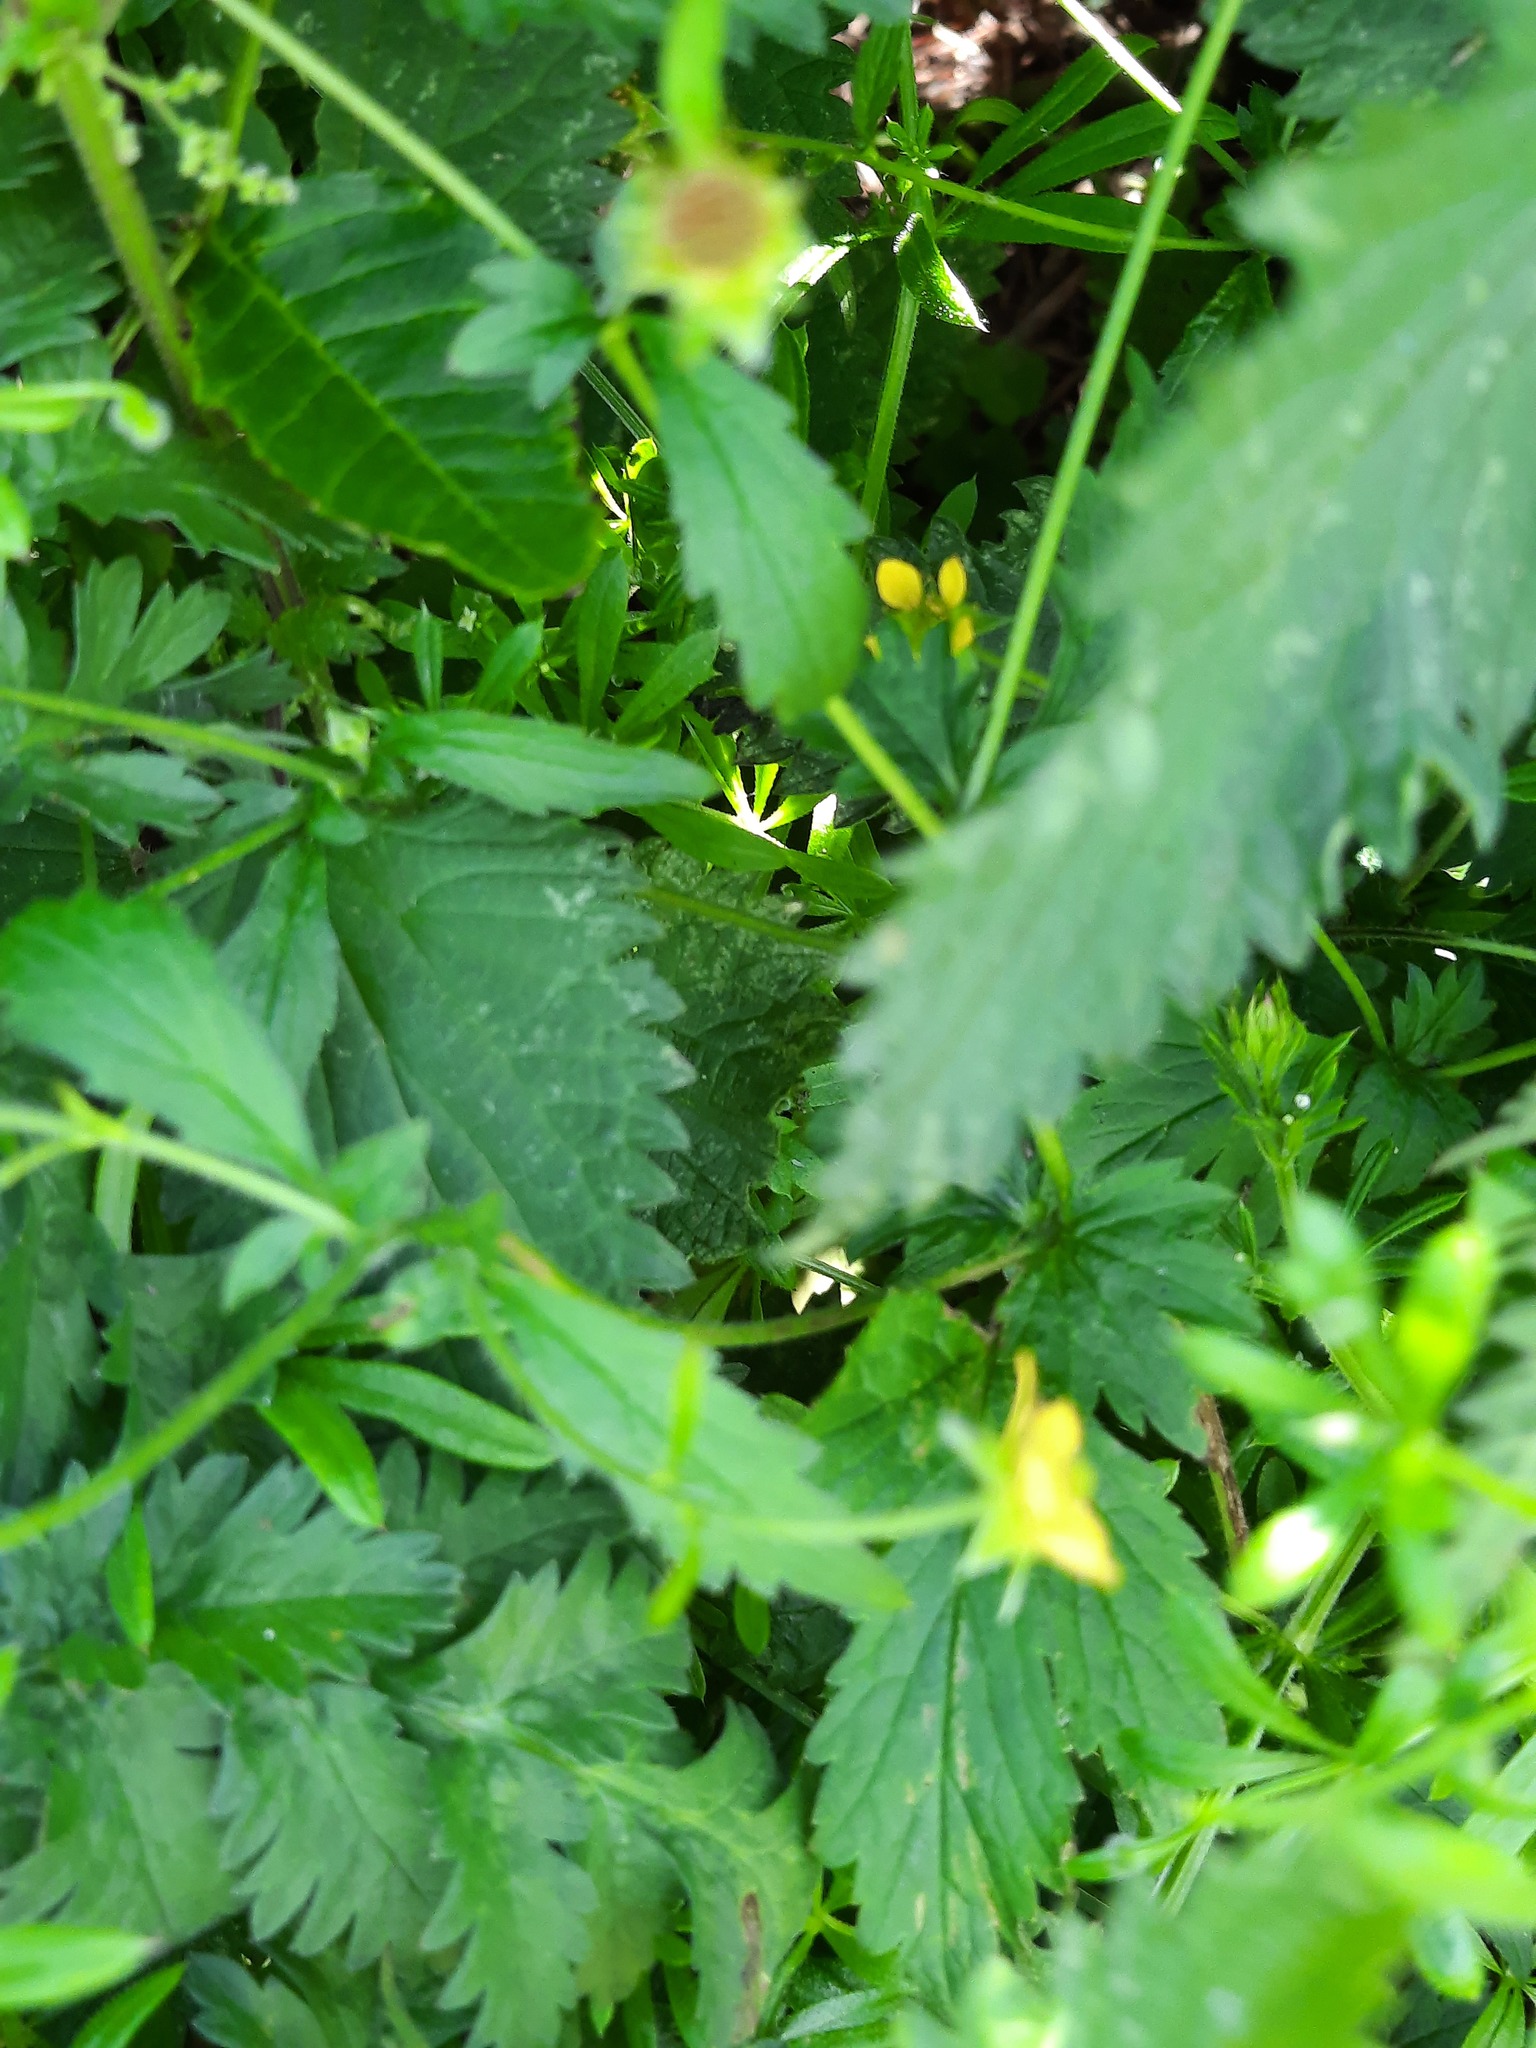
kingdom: Plantae
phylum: Tracheophyta
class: Magnoliopsida
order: Rosales
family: Rosaceae
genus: Geum
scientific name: Geum urbanum
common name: Wood avens
